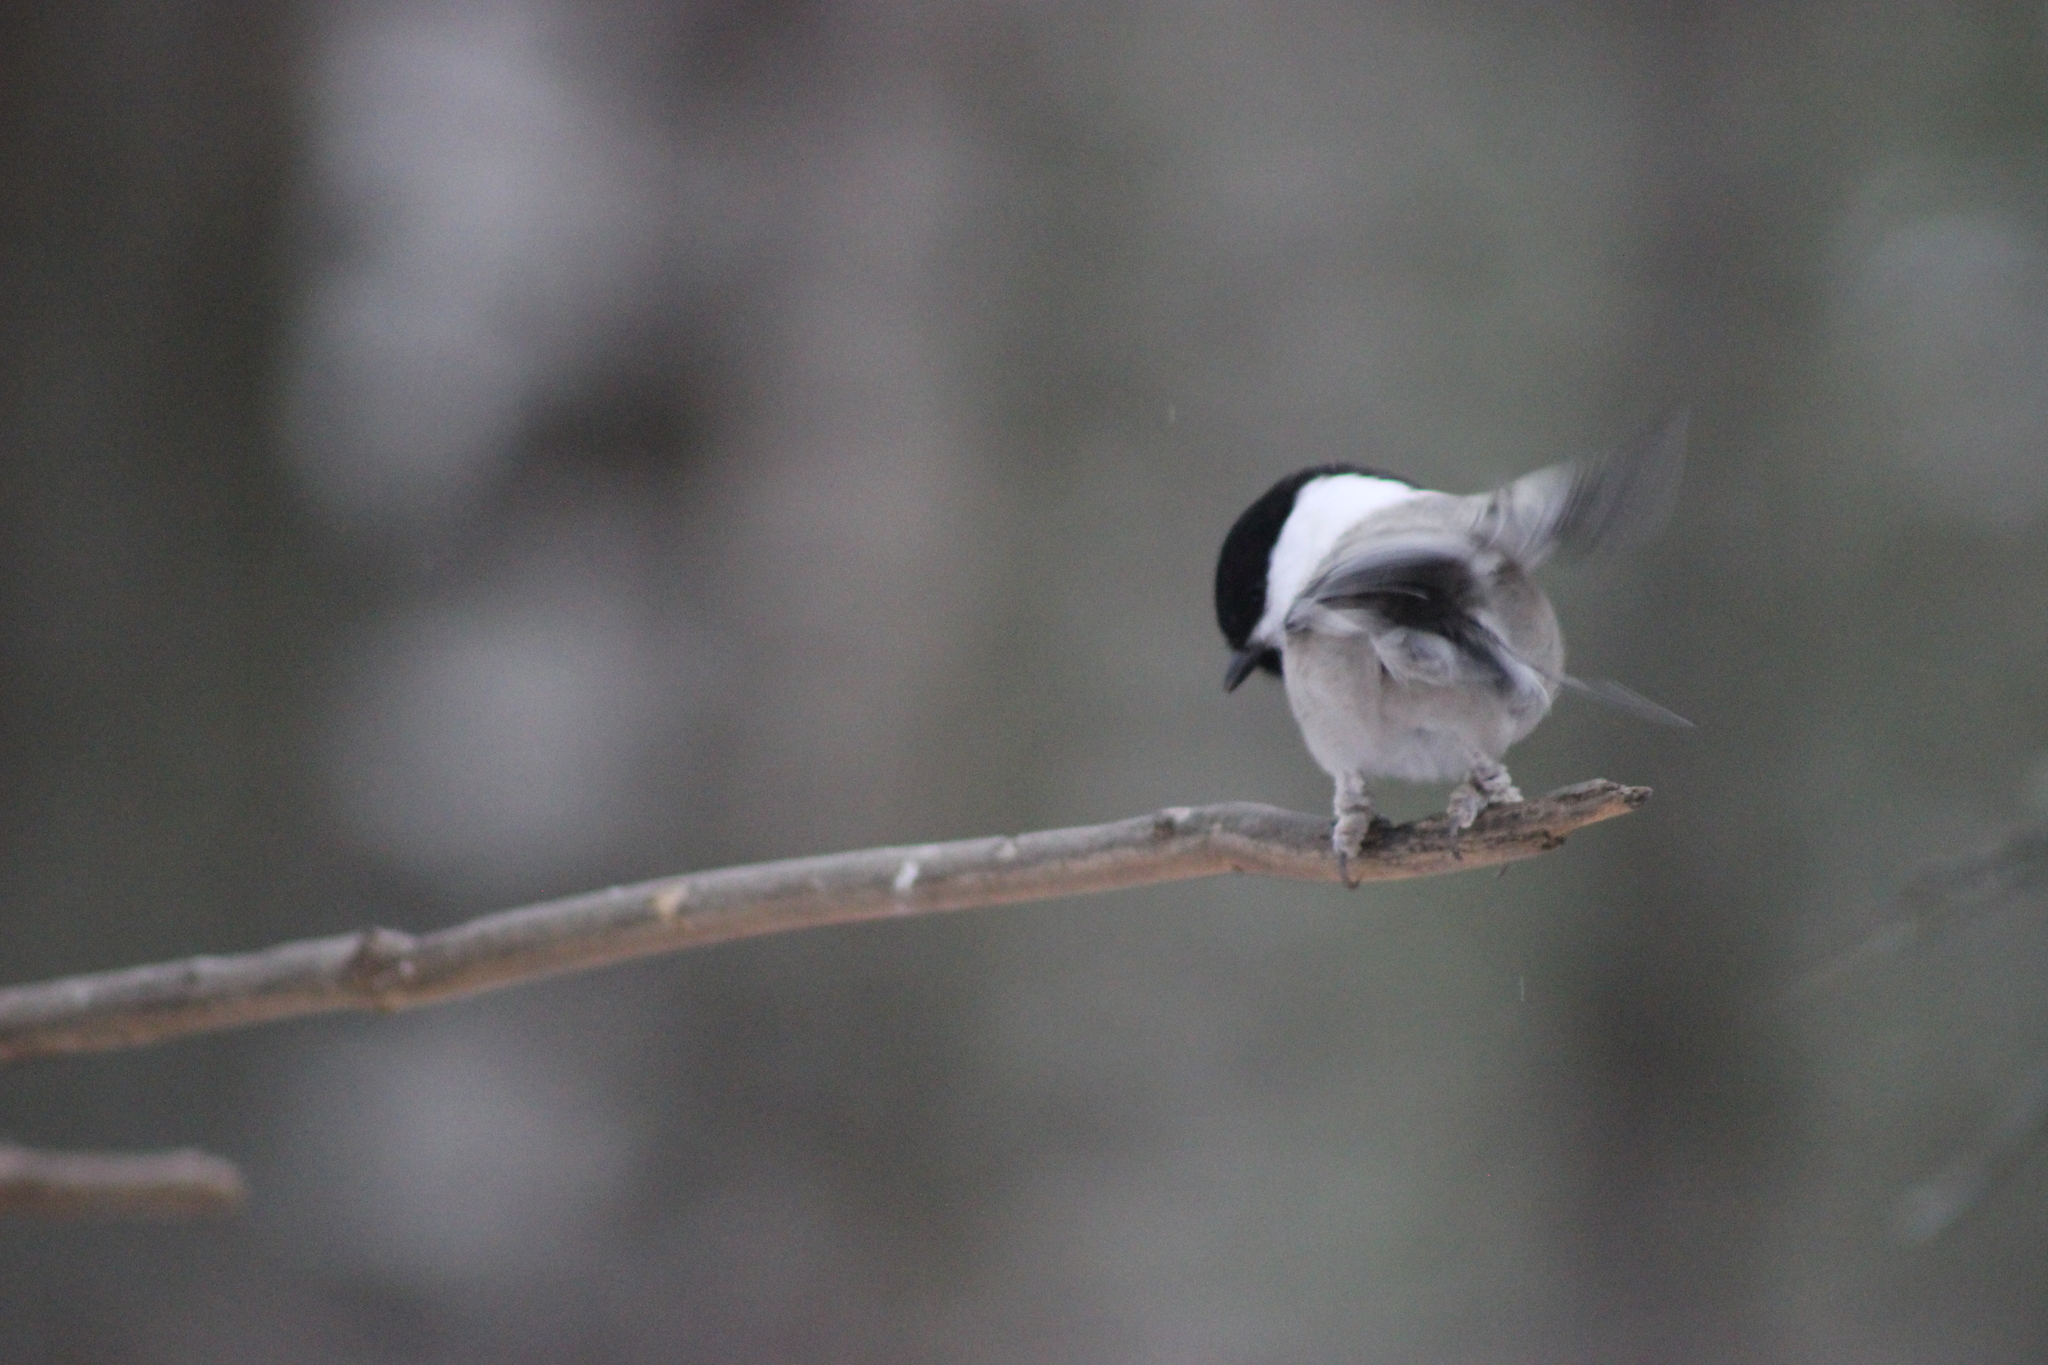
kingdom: Animalia
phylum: Chordata
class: Aves
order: Passeriformes
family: Paridae
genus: Poecile
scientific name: Poecile montanus
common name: Willow tit
